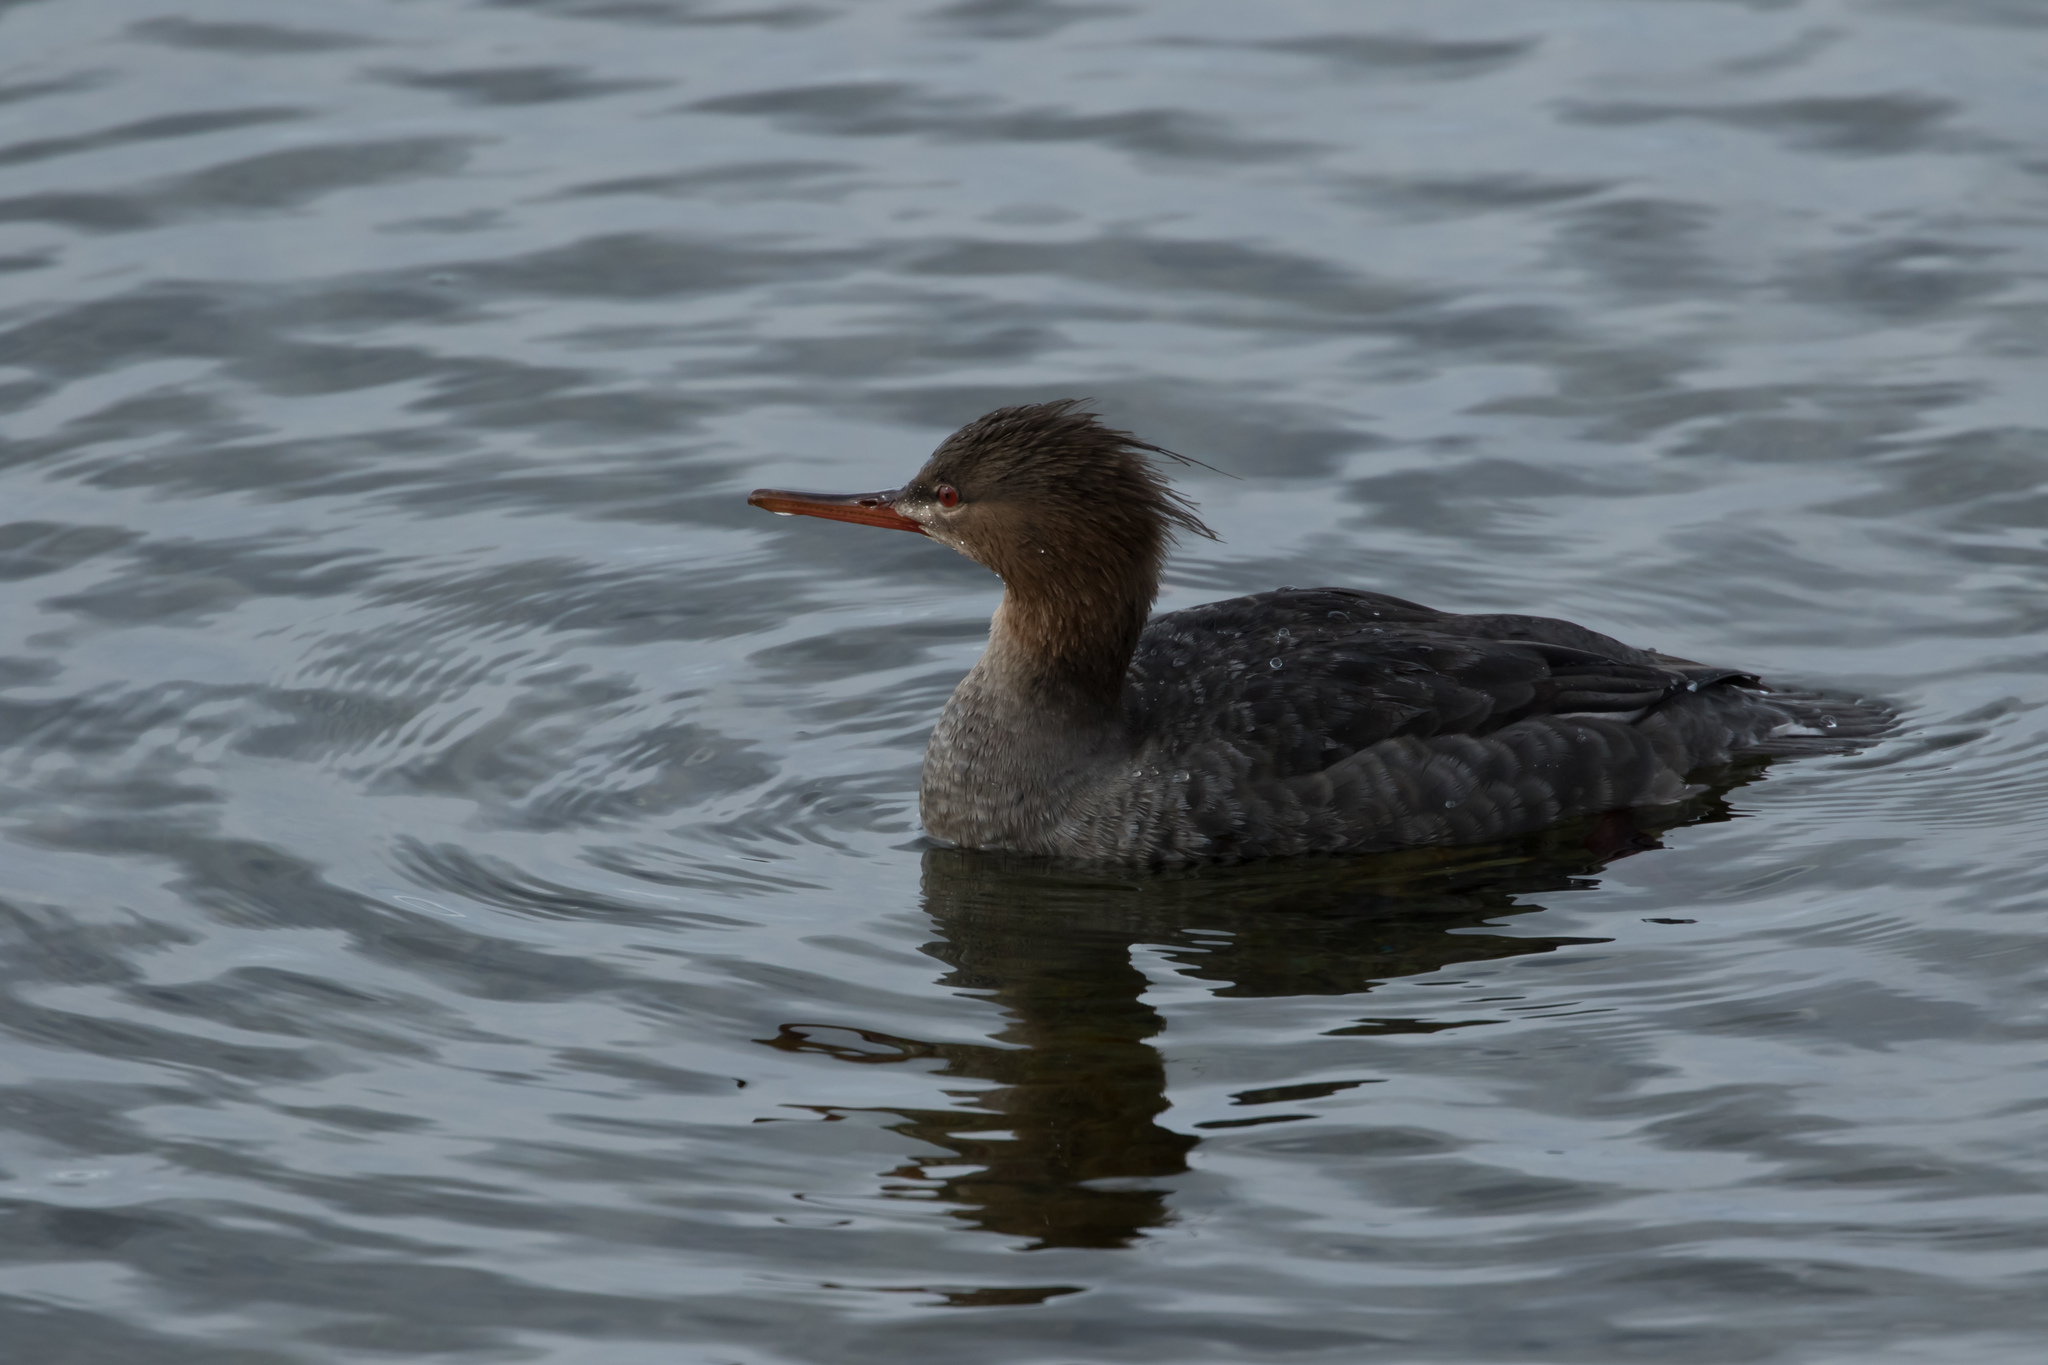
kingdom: Animalia
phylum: Chordata
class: Aves
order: Anseriformes
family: Anatidae
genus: Mergus
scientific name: Mergus serrator
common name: Red-breasted merganser
